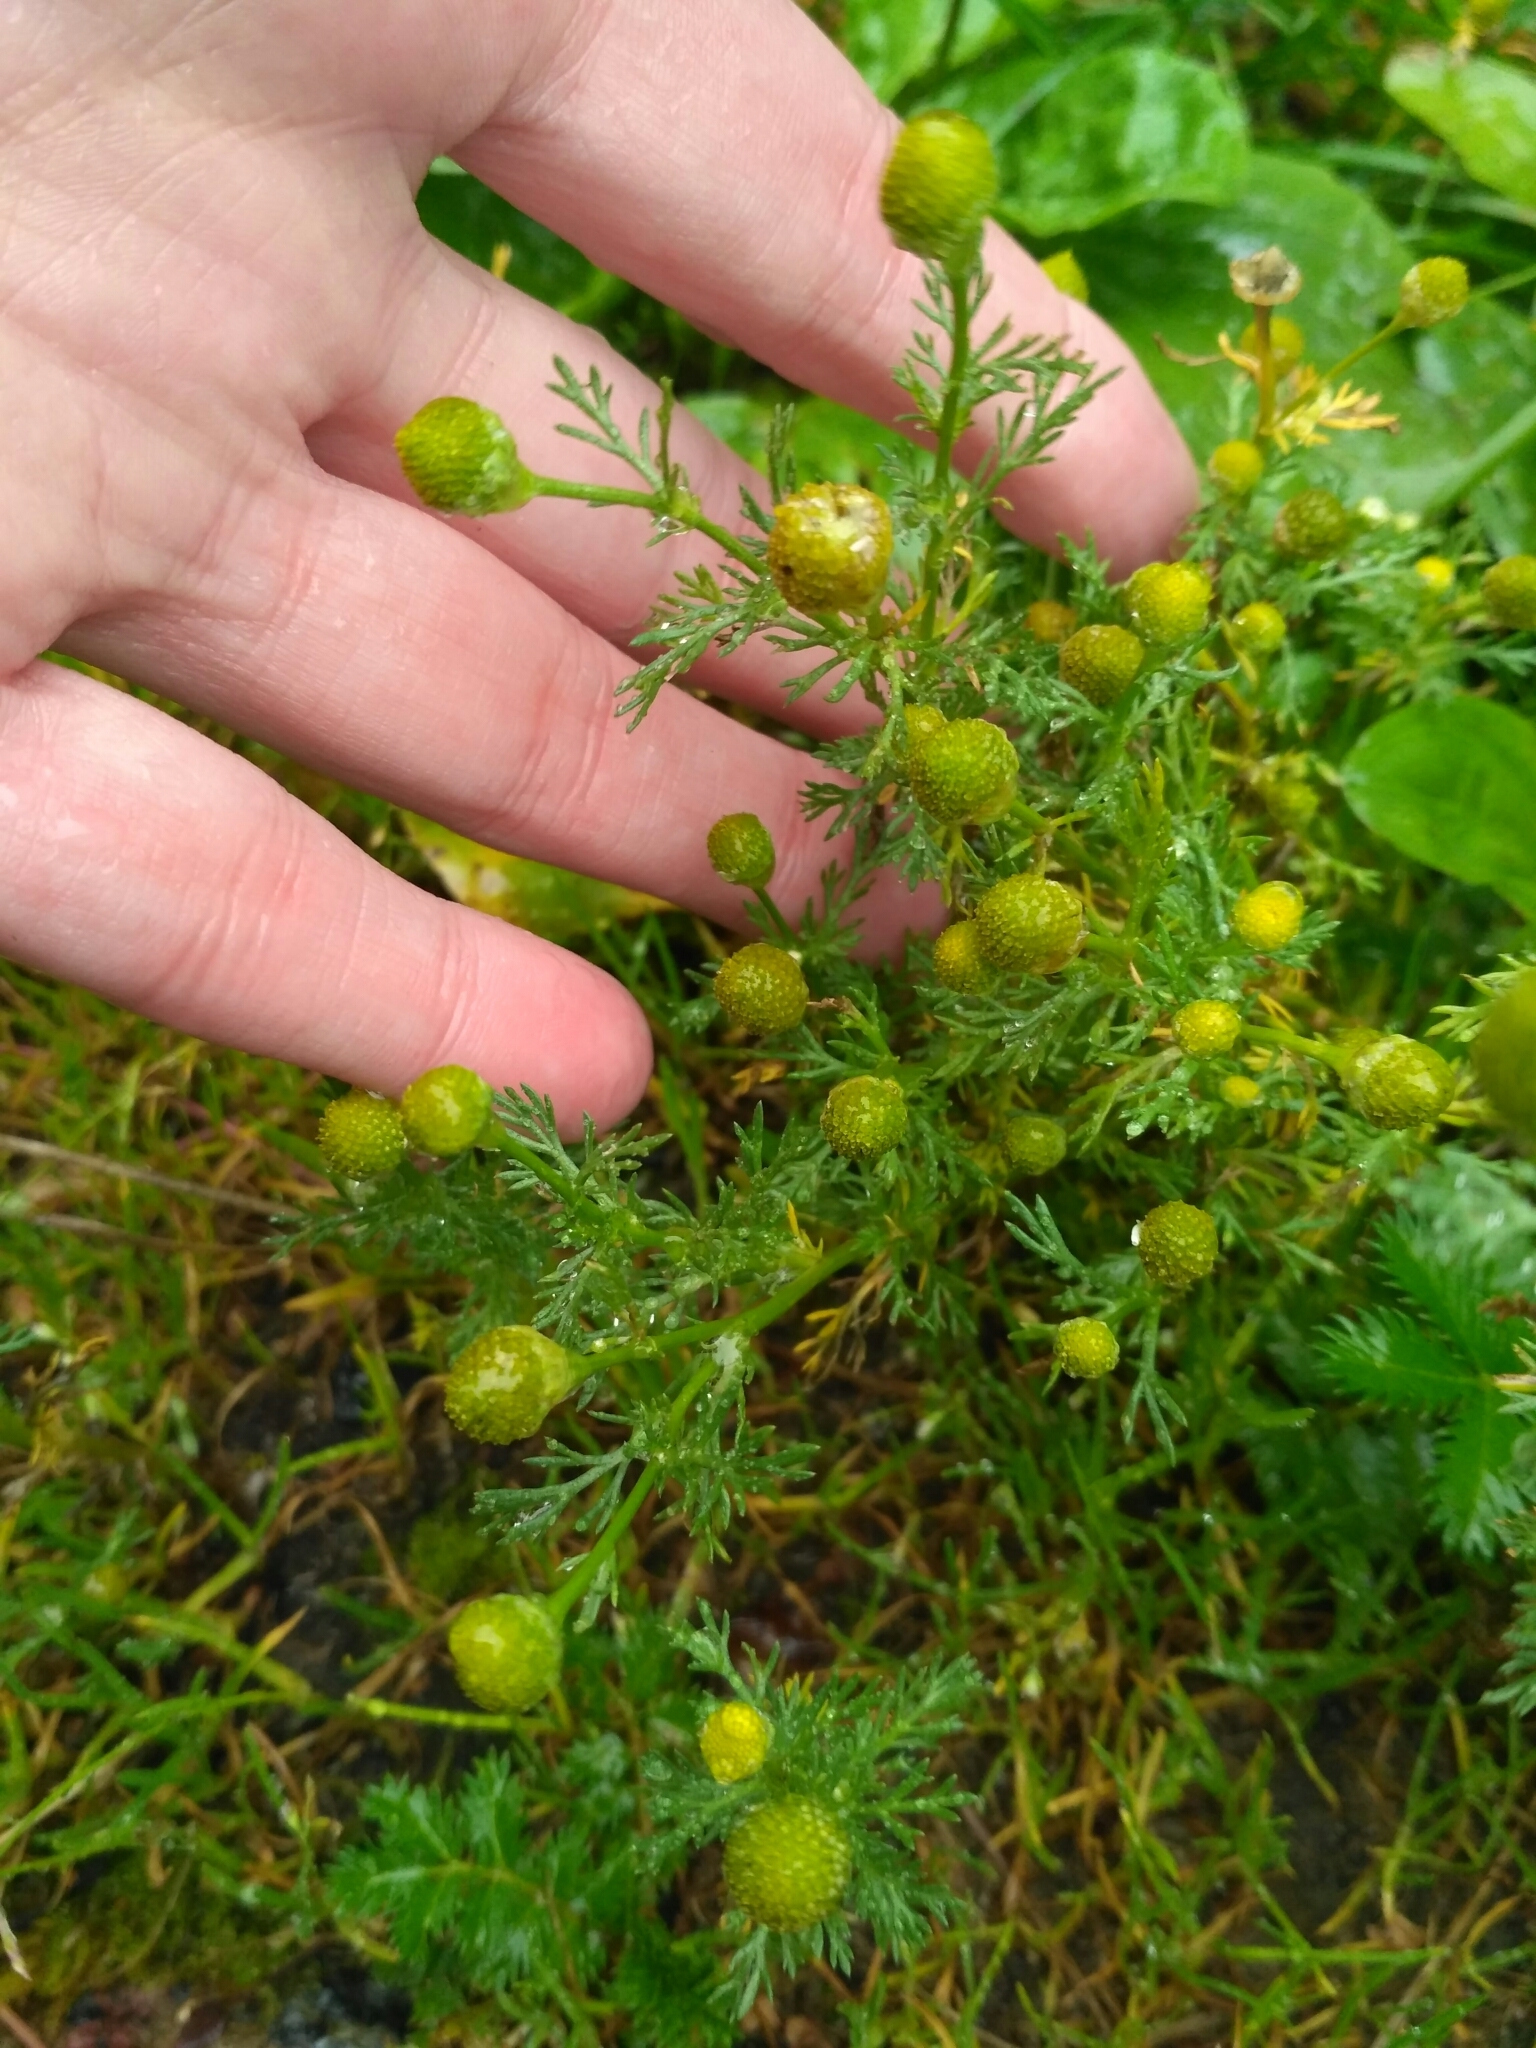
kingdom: Plantae
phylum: Tracheophyta
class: Magnoliopsida
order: Asterales
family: Asteraceae
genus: Matricaria
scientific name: Matricaria discoidea
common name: Disc mayweed
